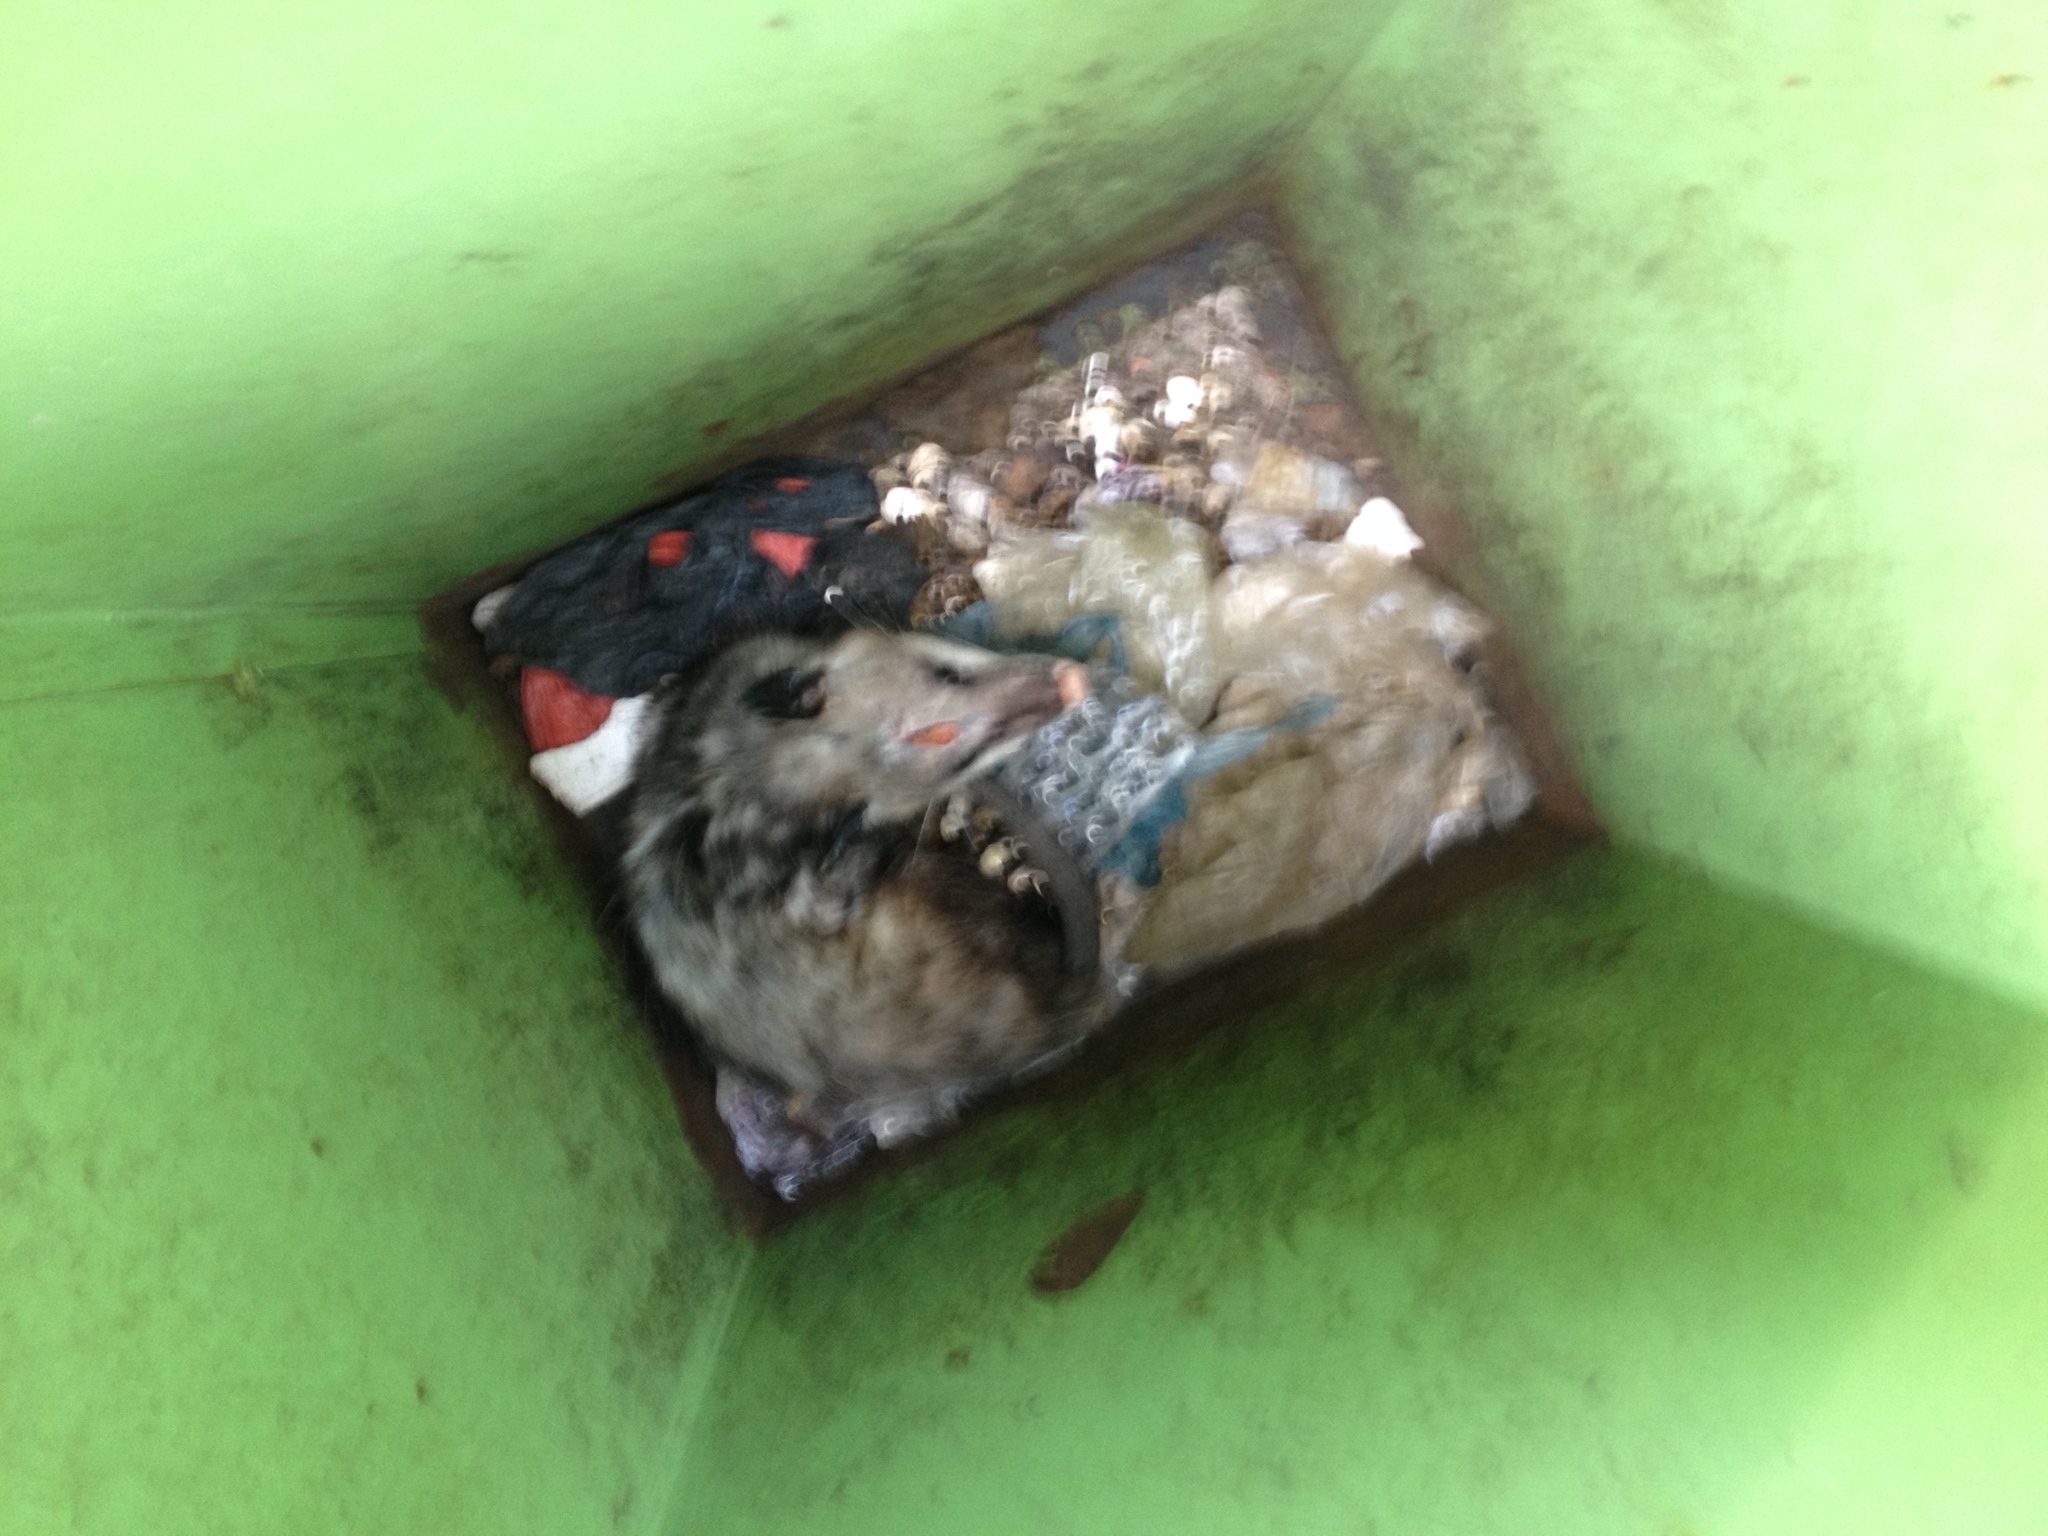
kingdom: Animalia
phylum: Chordata
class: Mammalia
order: Didelphimorphia
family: Didelphidae
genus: Didelphis
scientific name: Didelphis virginiana
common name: Virginia opossum
